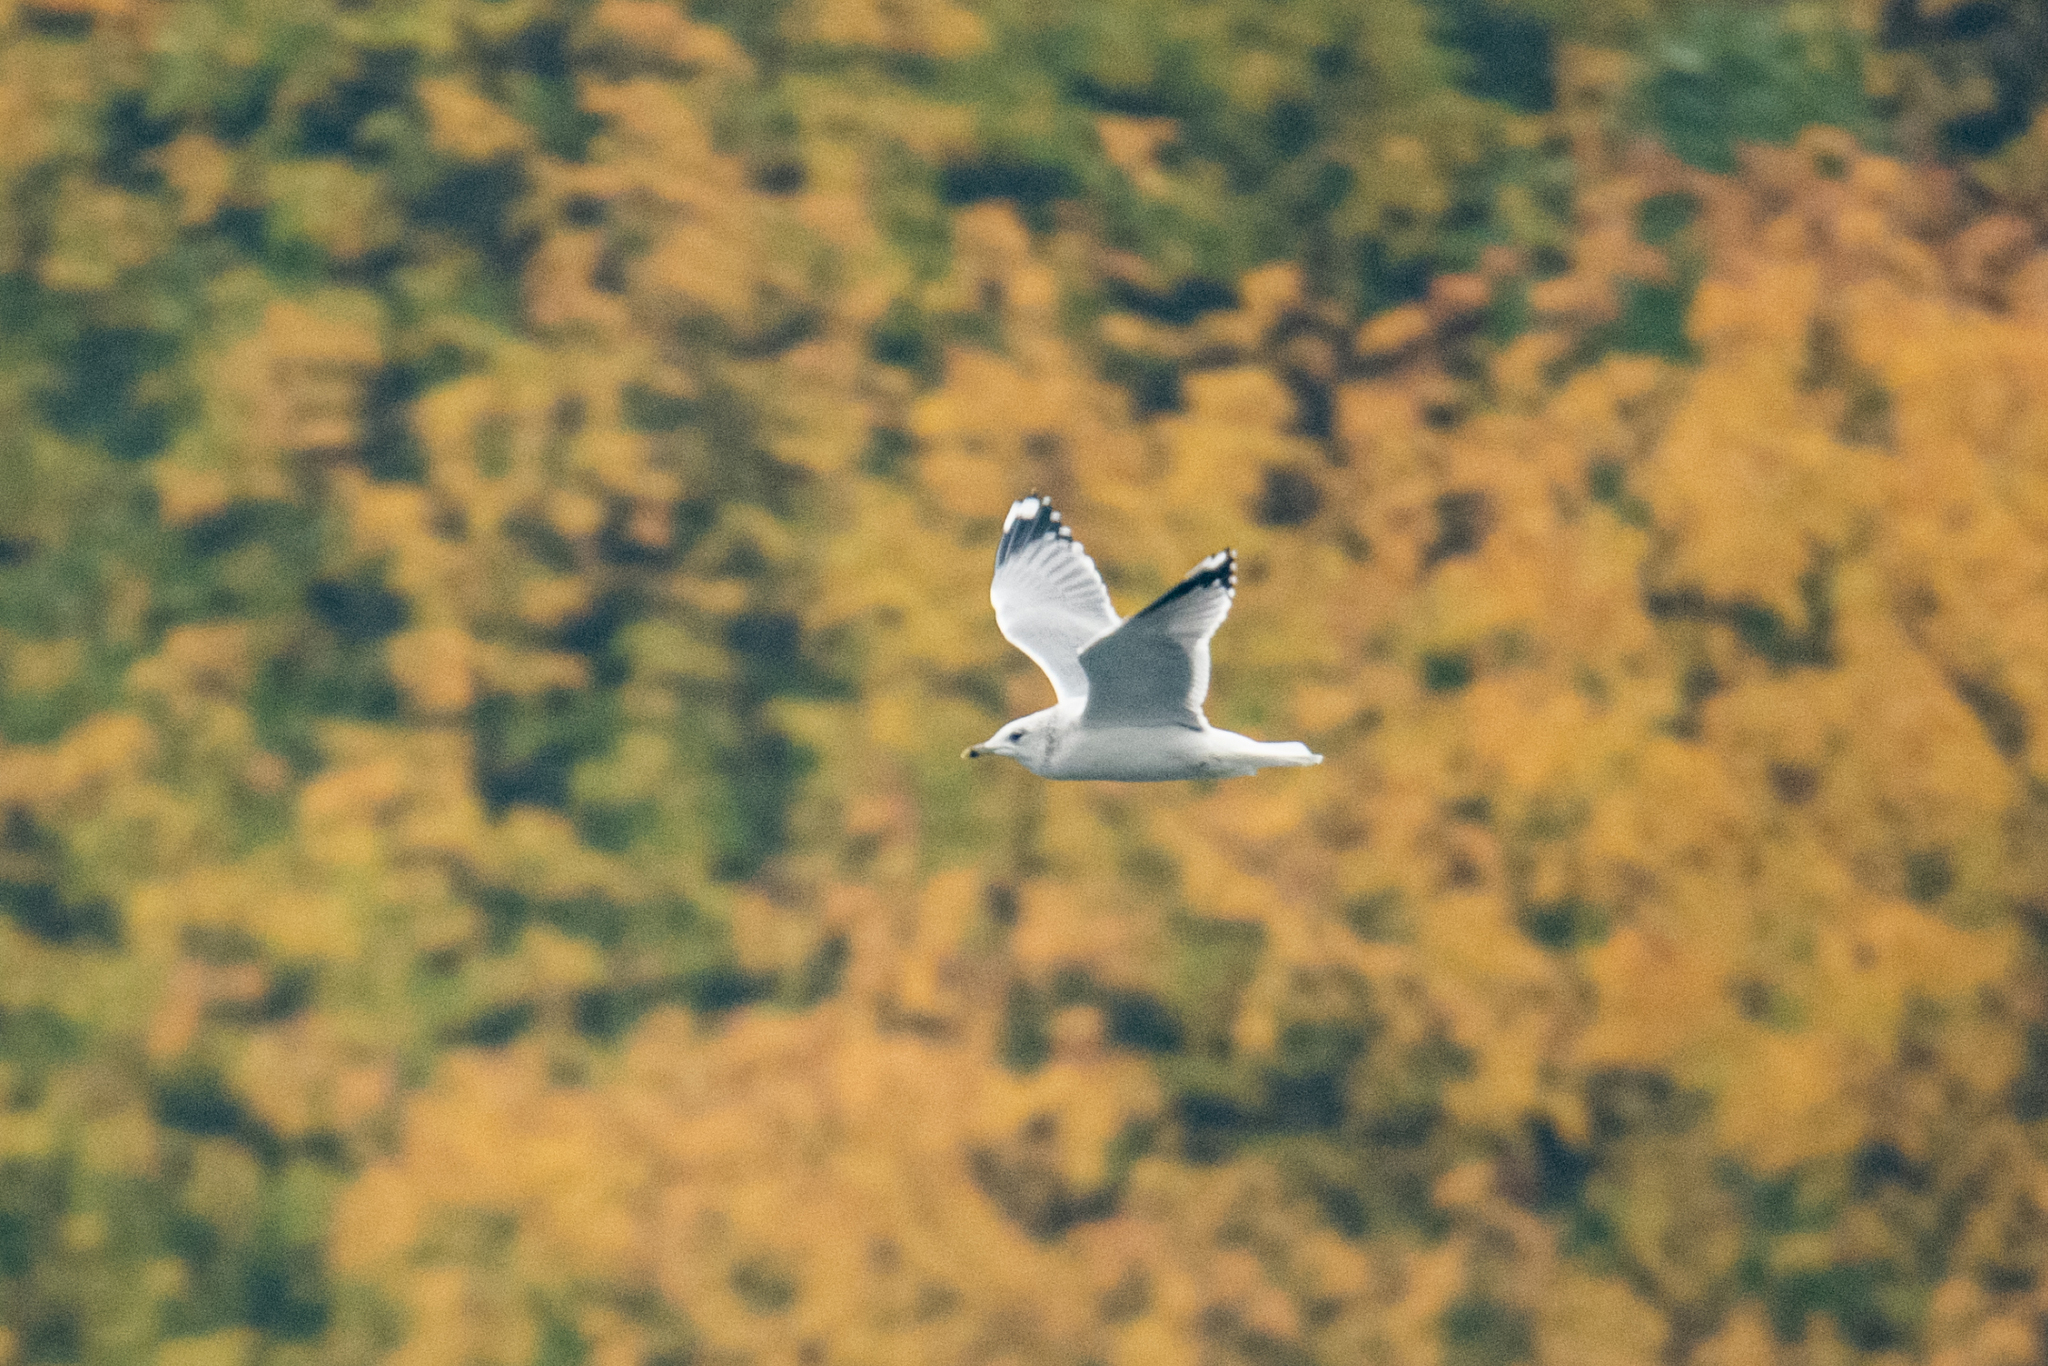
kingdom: Animalia
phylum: Chordata
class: Aves
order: Charadriiformes
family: Laridae
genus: Larus
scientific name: Larus canus
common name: Mew gull
